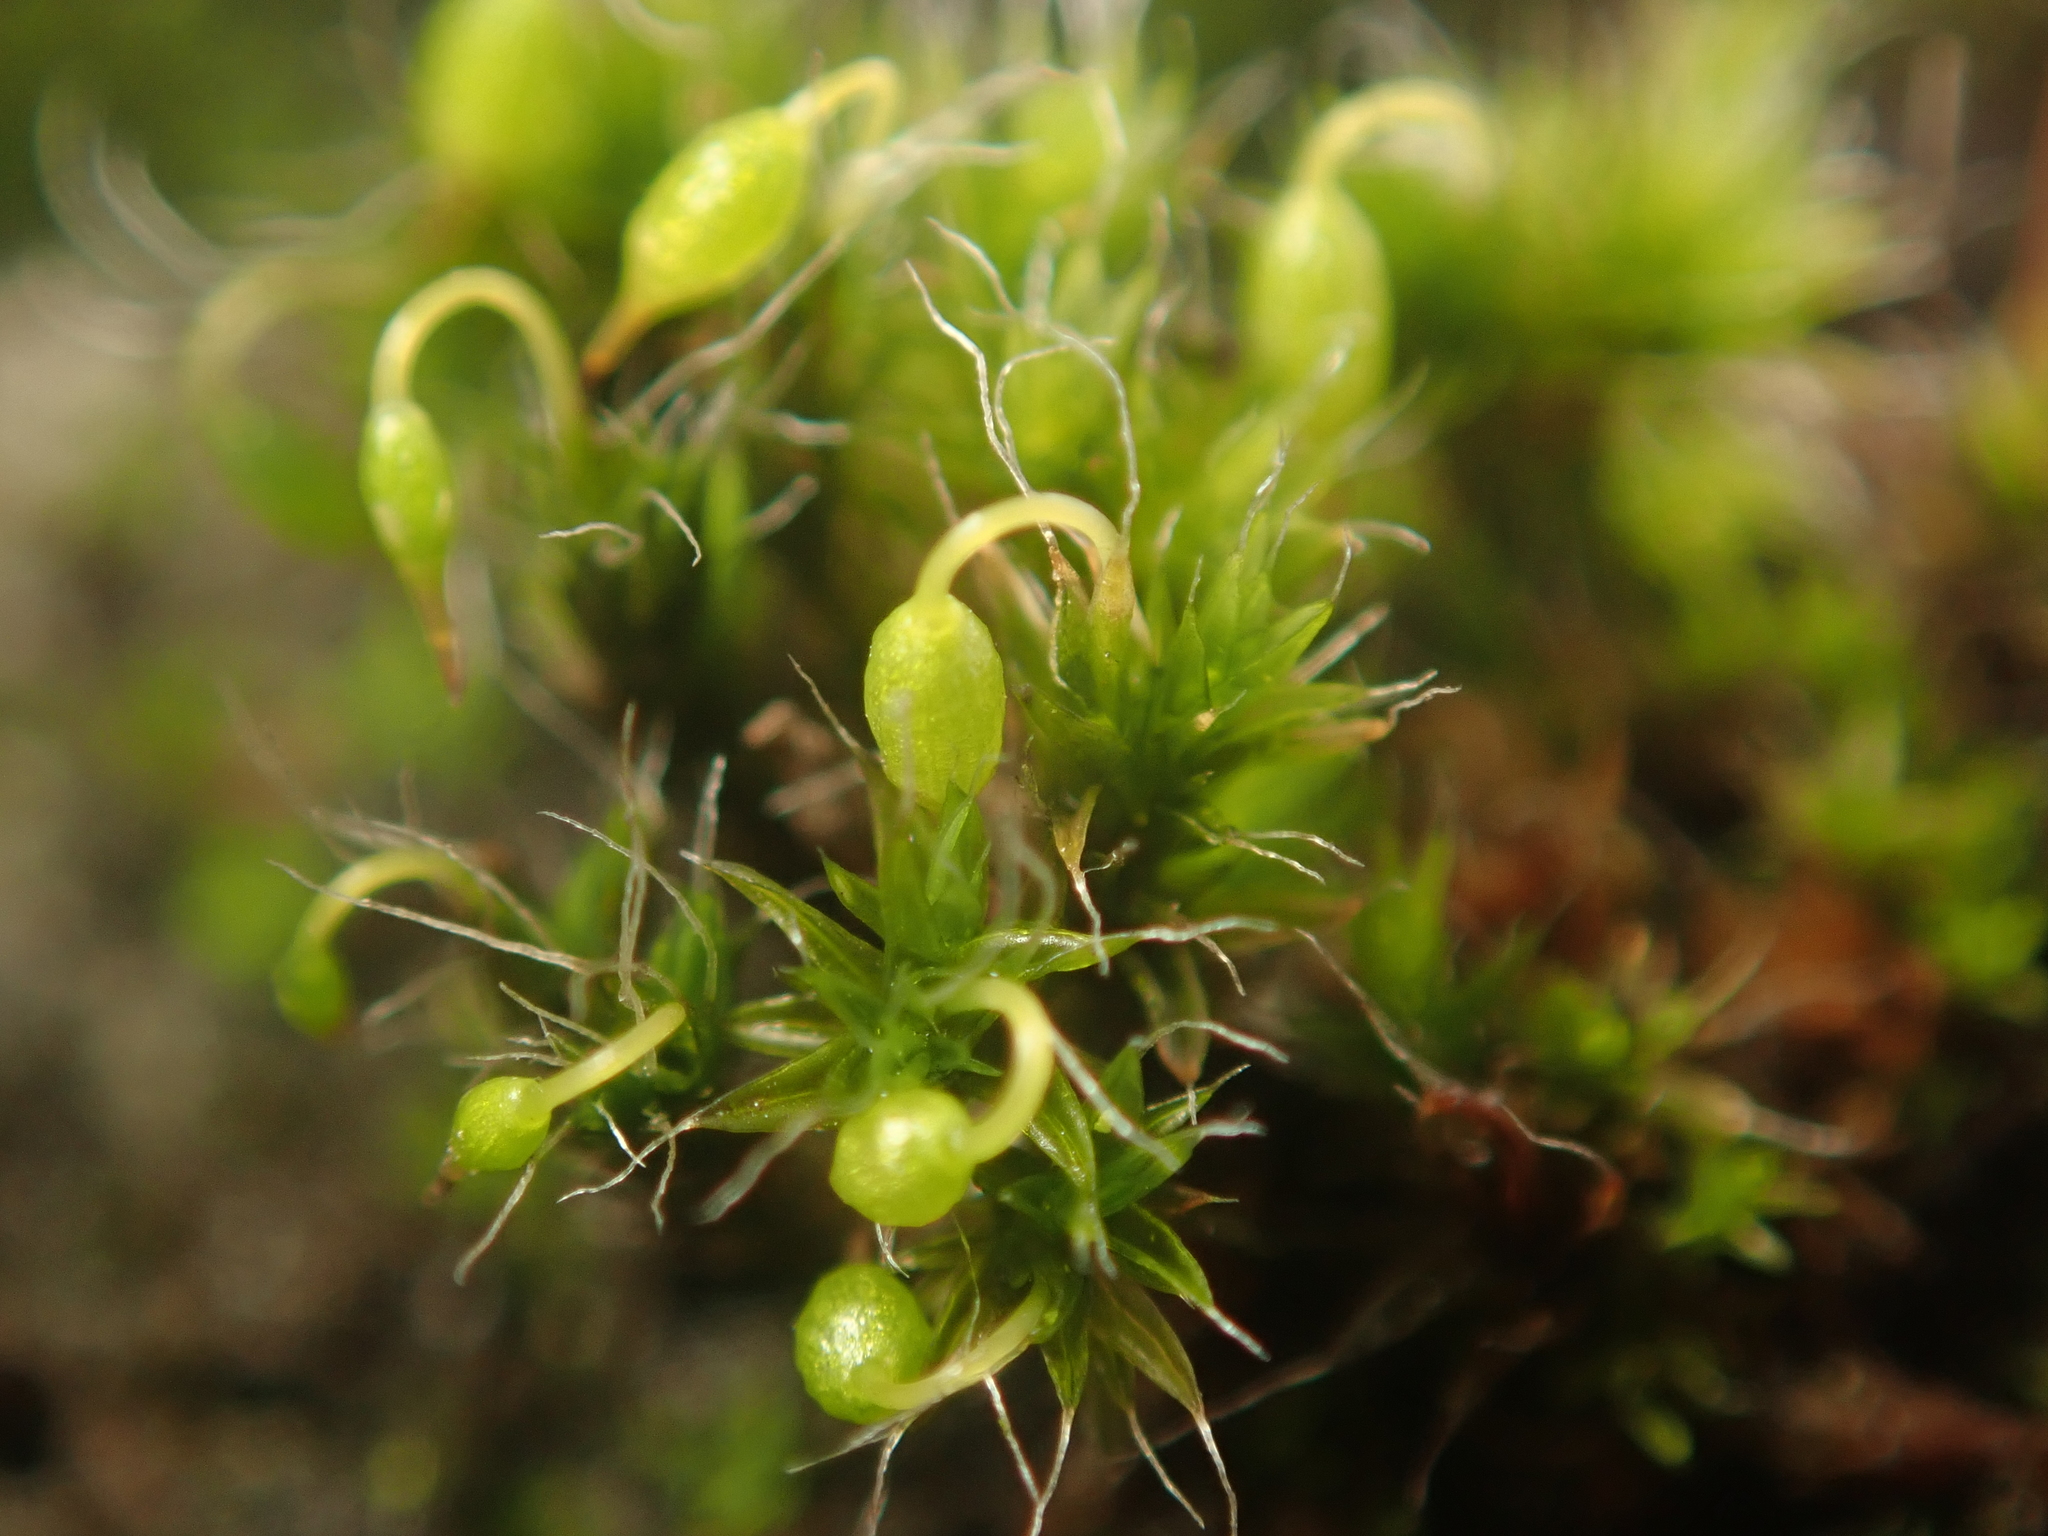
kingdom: Plantae
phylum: Bryophyta
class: Bryopsida
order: Grimmiales
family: Grimmiaceae
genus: Grimmia
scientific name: Grimmia pulvinata
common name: Grey-cushioned grimmia
